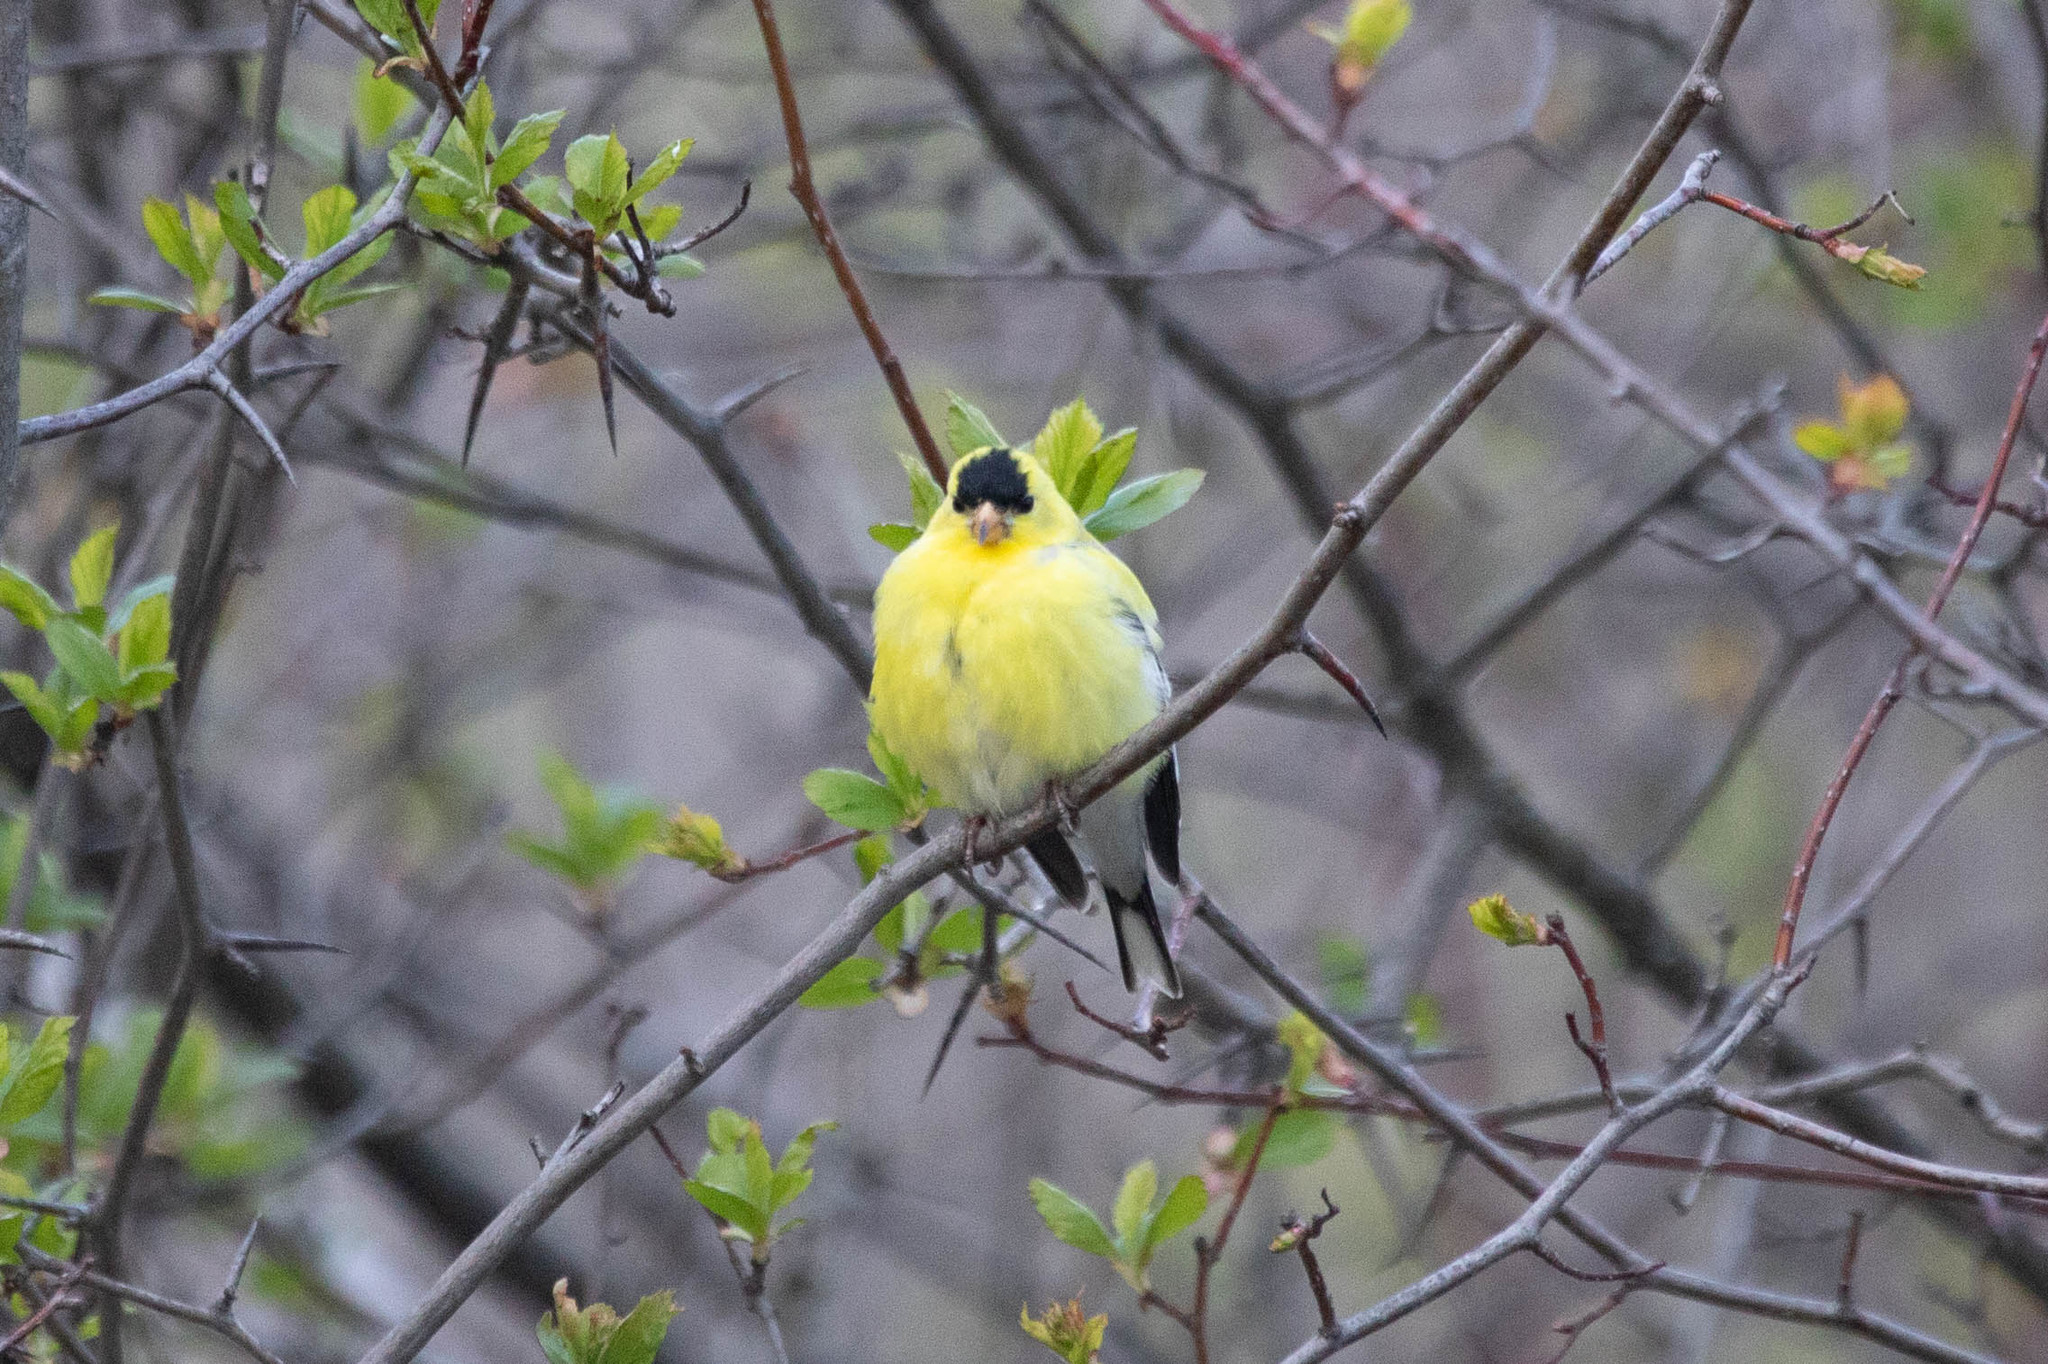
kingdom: Animalia
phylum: Chordata
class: Aves
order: Passeriformes
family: Fringillidae
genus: Spinus
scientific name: Spinus tristis
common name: American goldfinch
